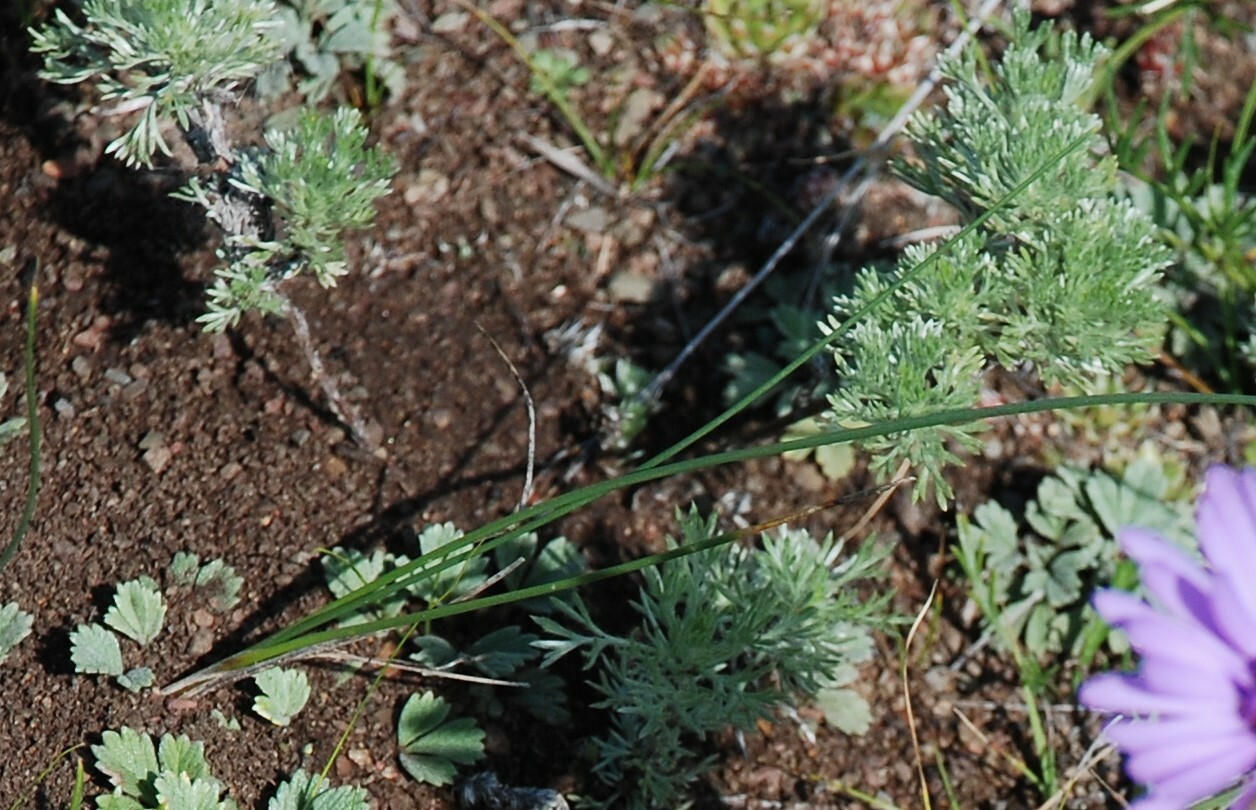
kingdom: Plantae
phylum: Tracheophyta
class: Magnoliopsida
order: Asterales
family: Asteraceae
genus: Artemisia
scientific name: Artemisia frigida
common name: Prairie sagewort
